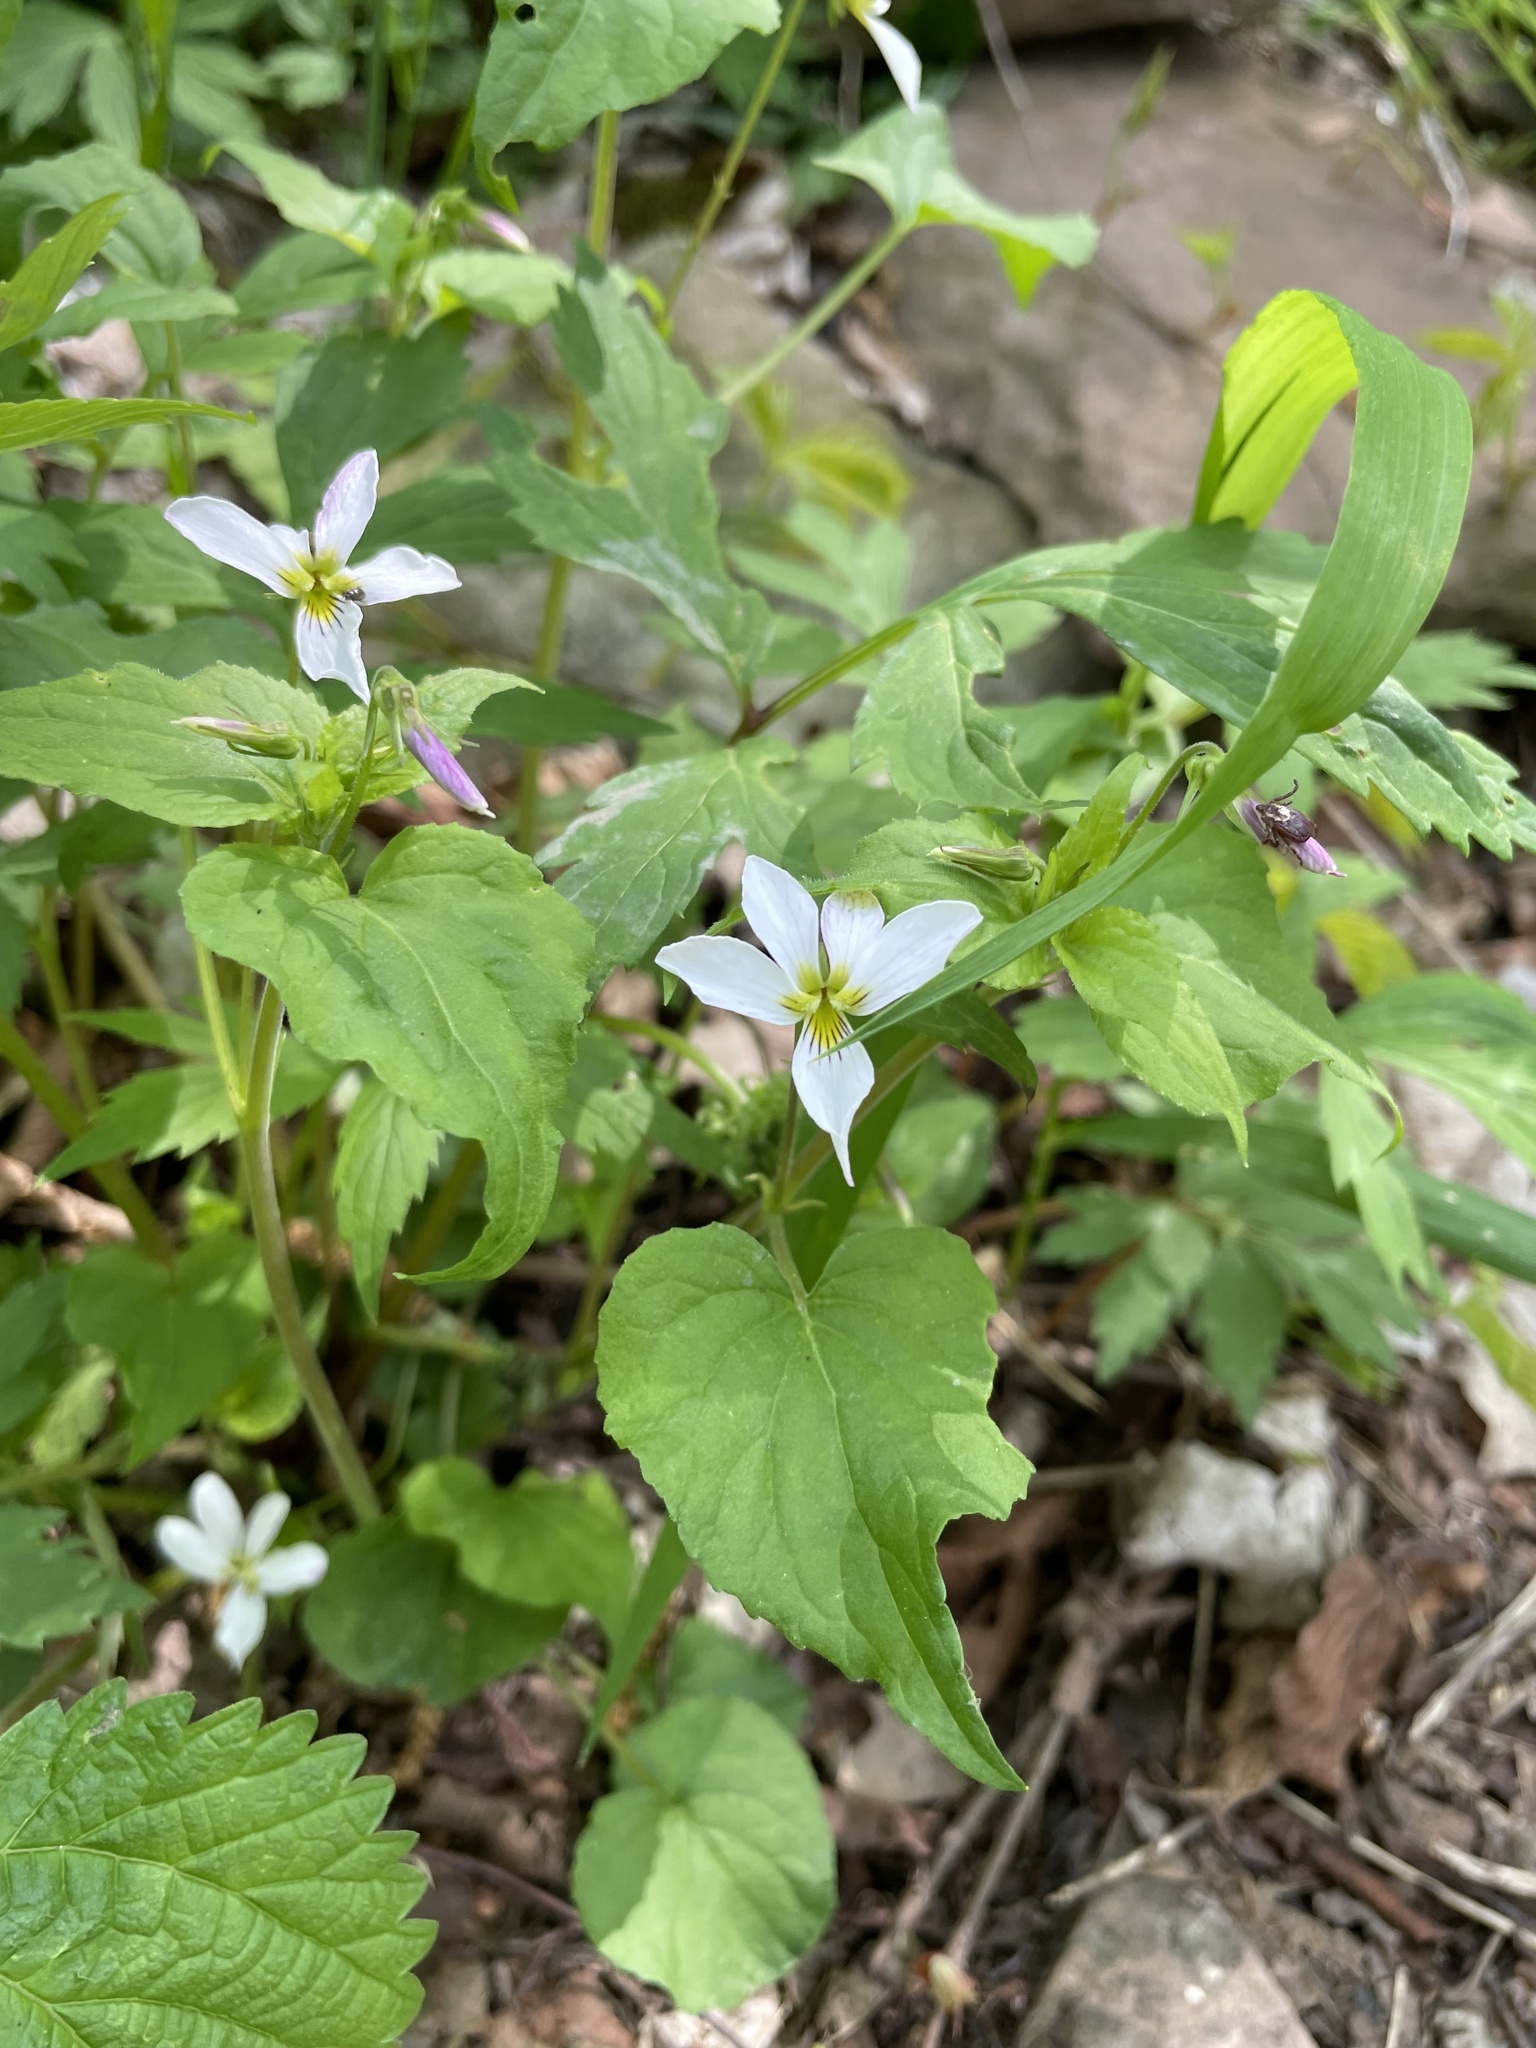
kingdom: Plantae
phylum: Tracheophyta
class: Magnoliopsida
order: Malpighiales
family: Violaceae
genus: Viola
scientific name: Viola canadensis
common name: Canada violet
